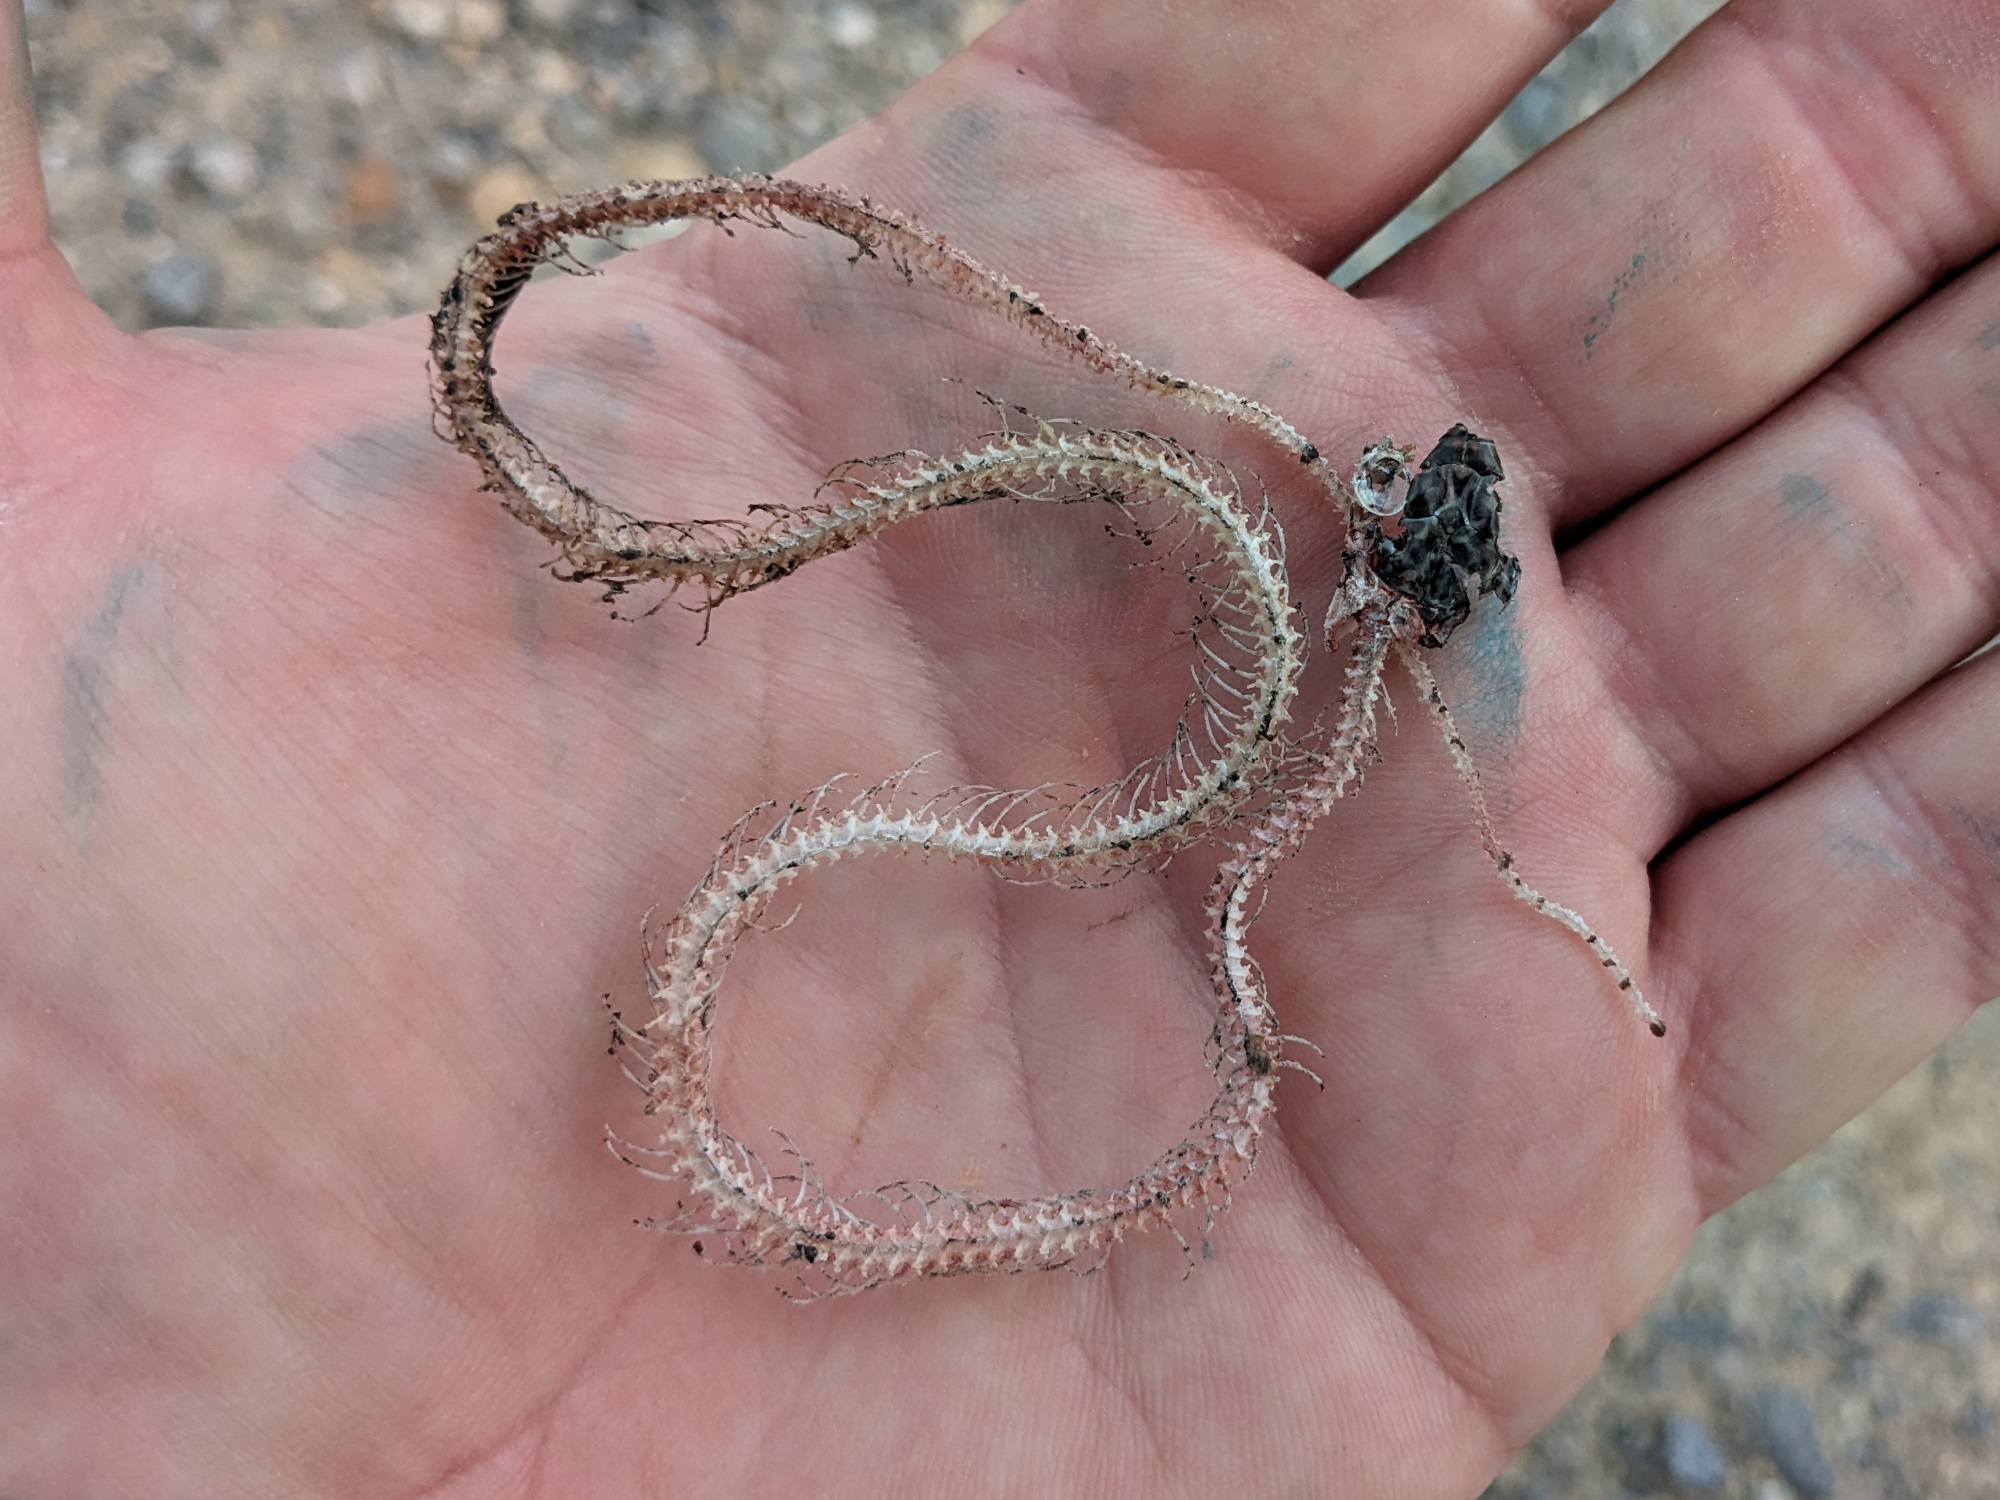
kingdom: Animalia
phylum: Chordata
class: Squamata
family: Colubridae
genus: Coluber
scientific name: Coluber constrictor
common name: Eastern racer
